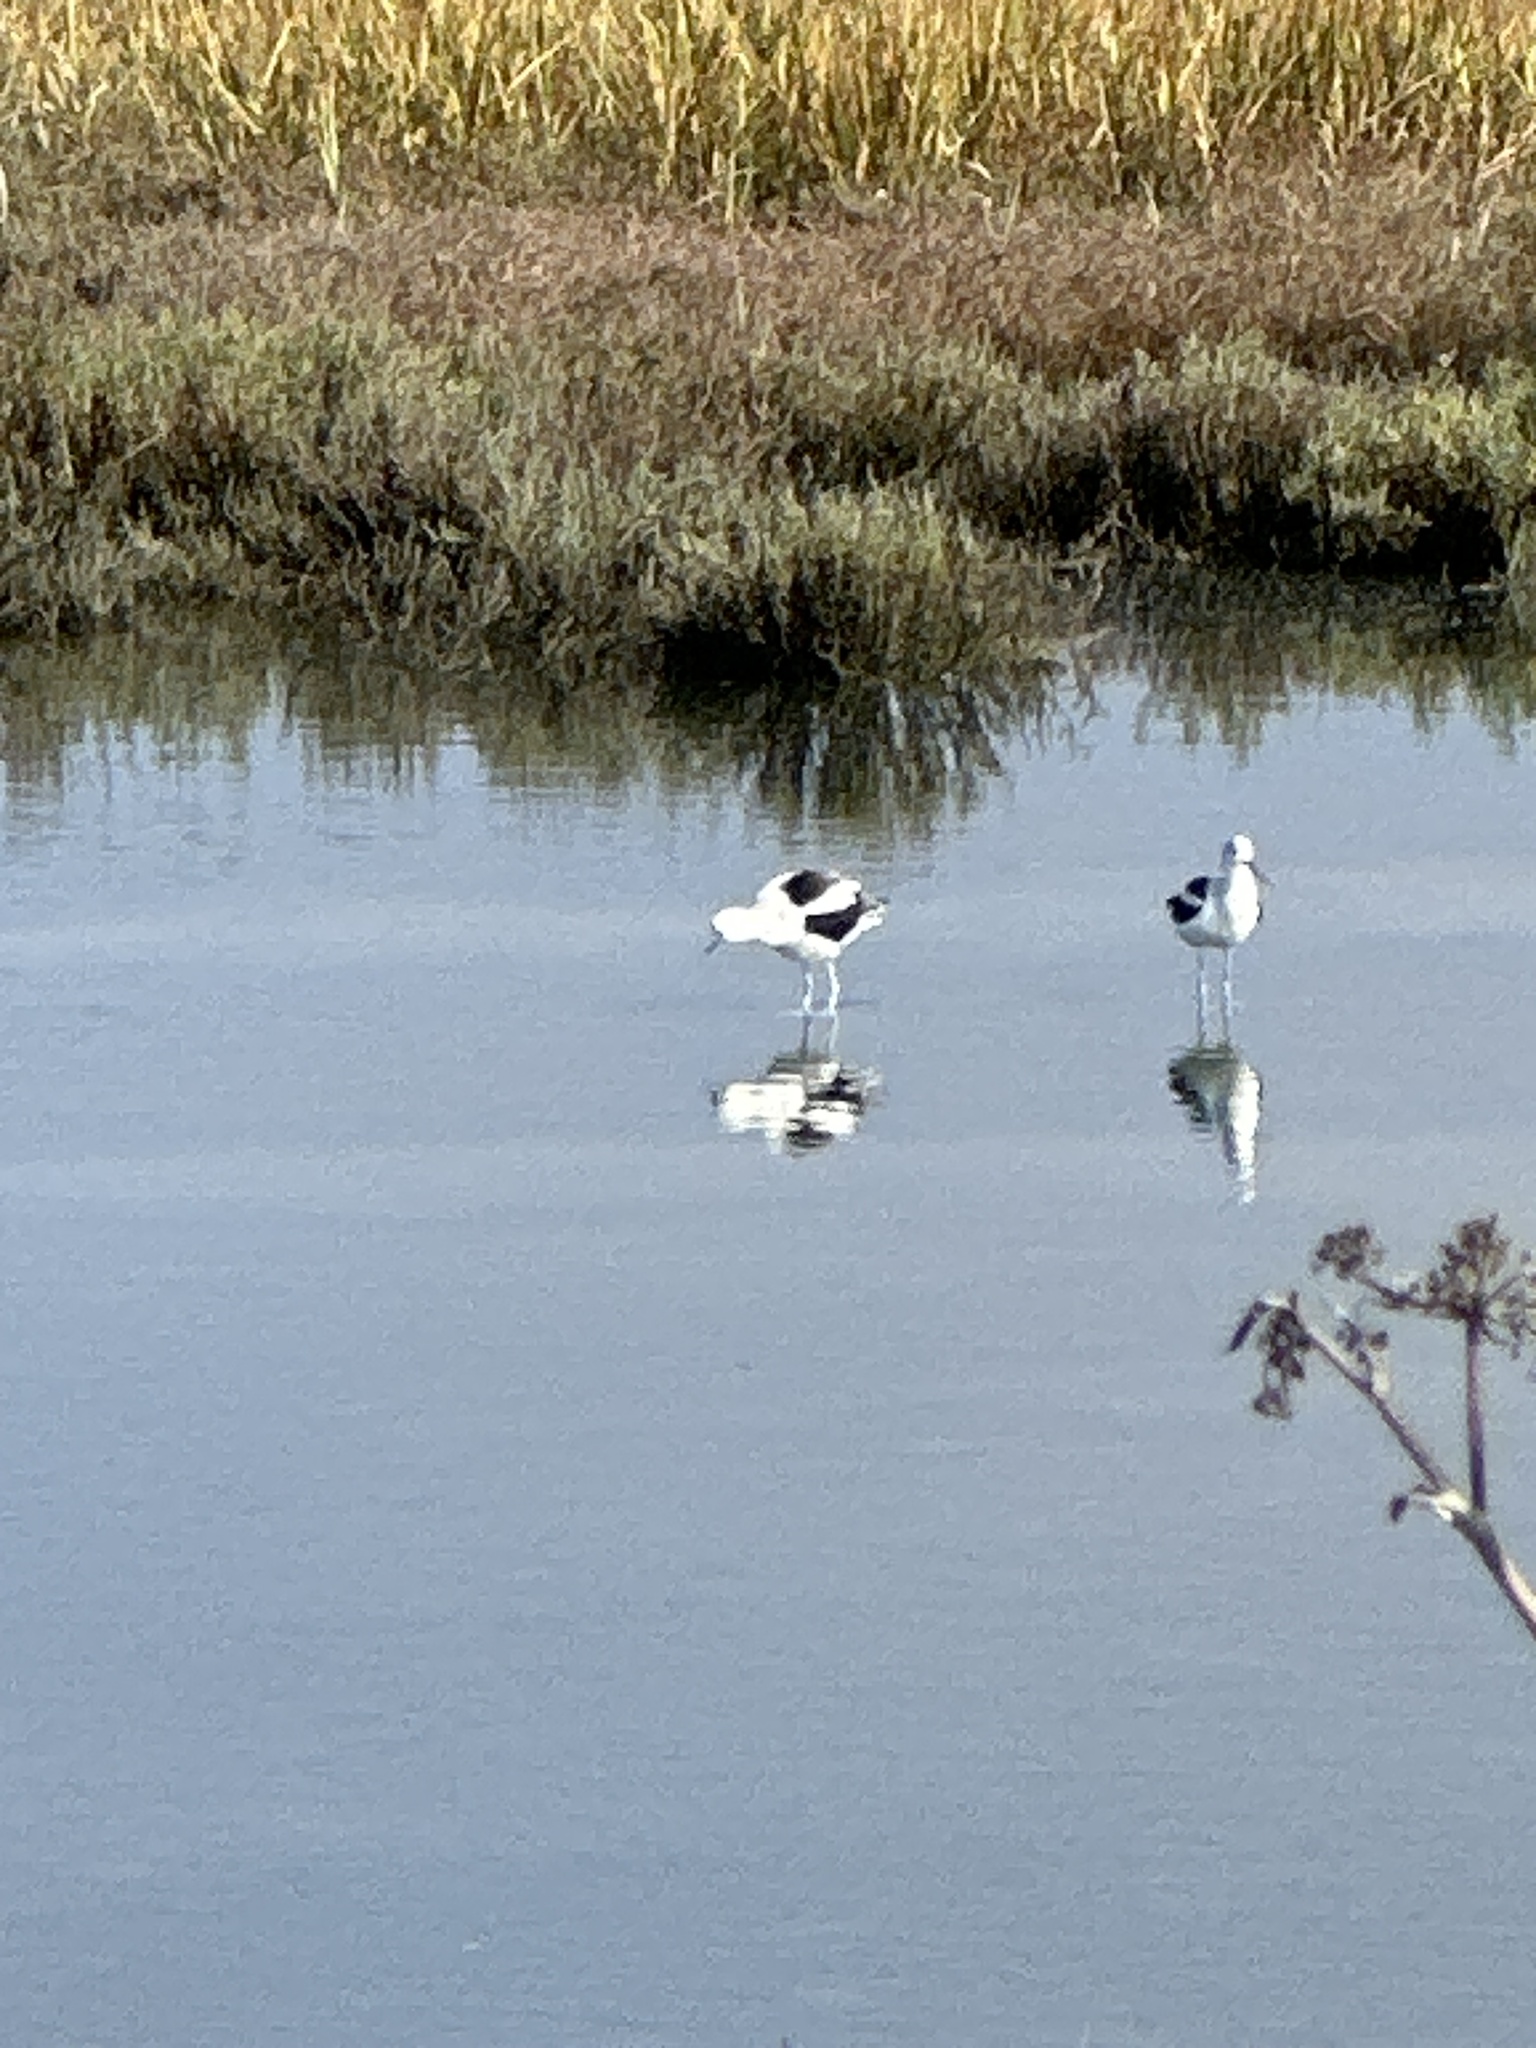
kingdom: Animalia
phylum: Chordata
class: Aves
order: Charadriiformes
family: Recurvirostridae
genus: Recurvirostra
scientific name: Recurvirostra americana
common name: American avocet
